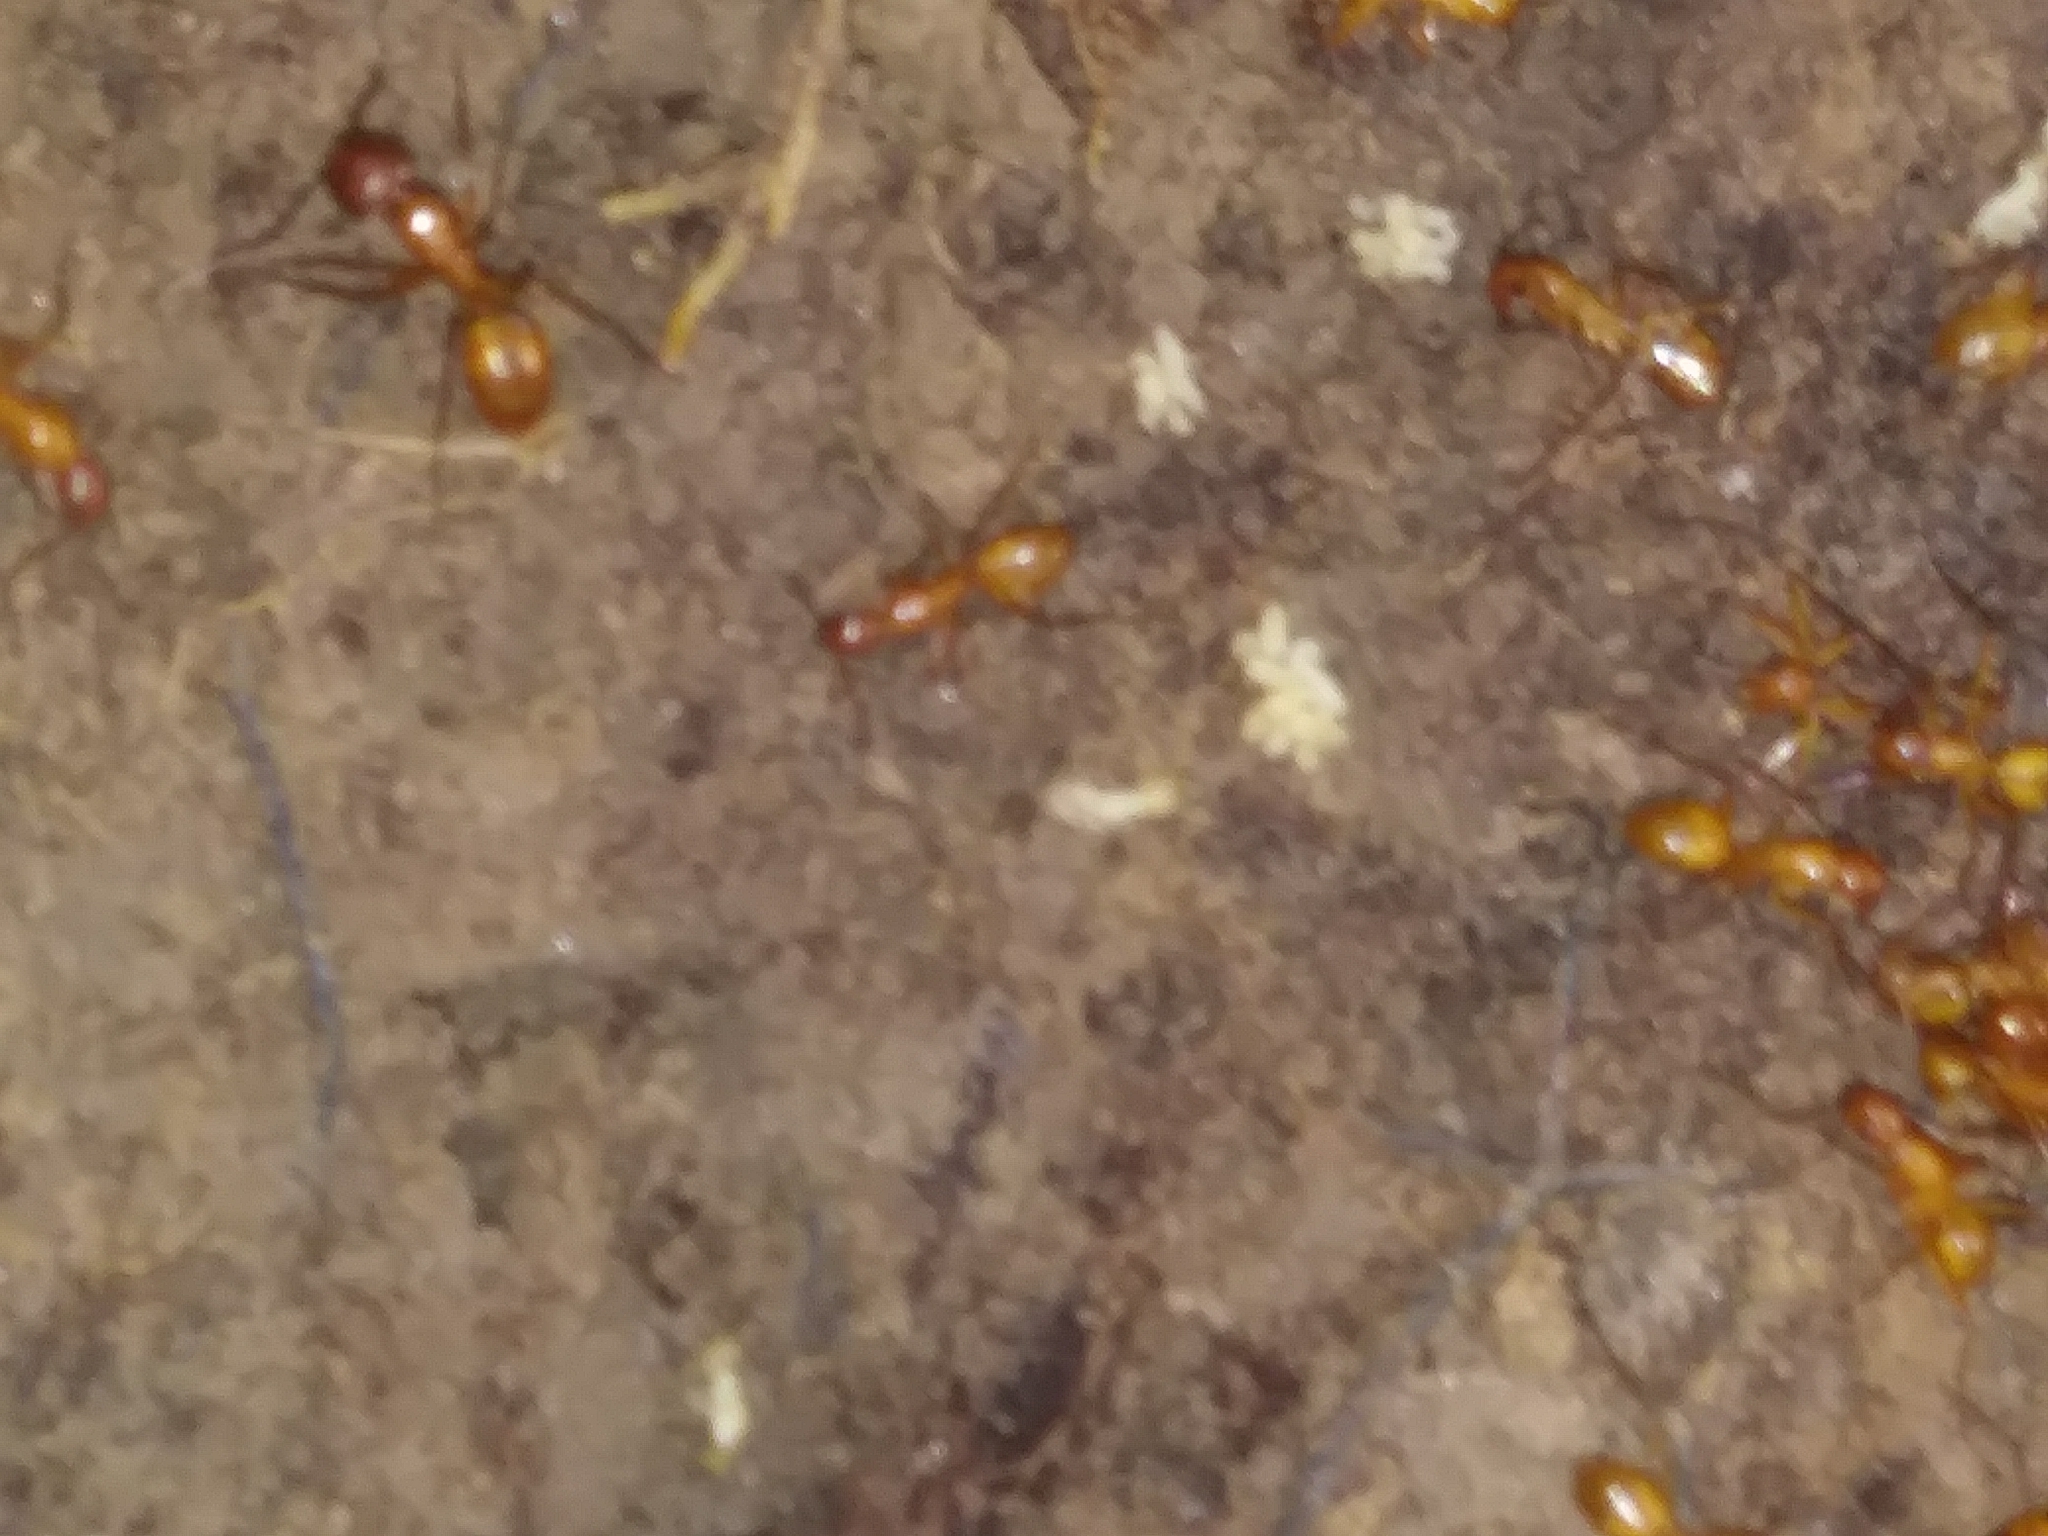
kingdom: Animalia
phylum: Arthropoda
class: Insecta
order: Hymenoptera
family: Formicidae
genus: Camponotus
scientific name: Camponotus castaneus
